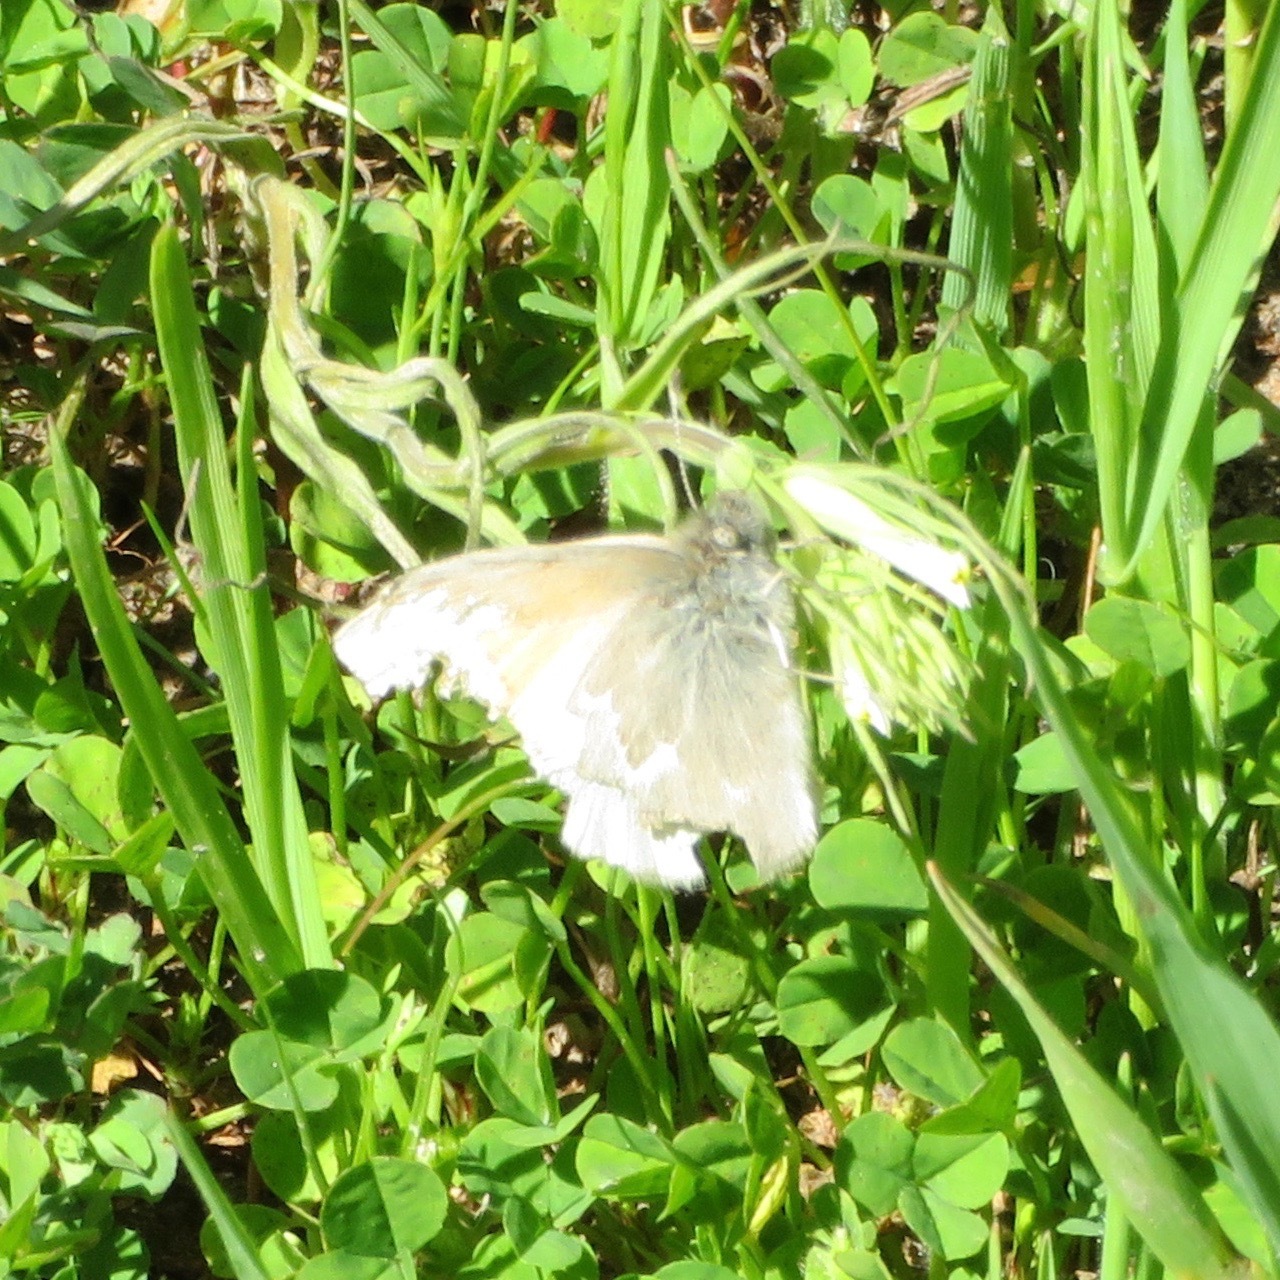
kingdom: Animalia
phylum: Arthropoda
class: Insecta
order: Lepidoptera
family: Nymphalidae
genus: Coenonympha
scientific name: Coenonympha california
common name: Common ringlet
